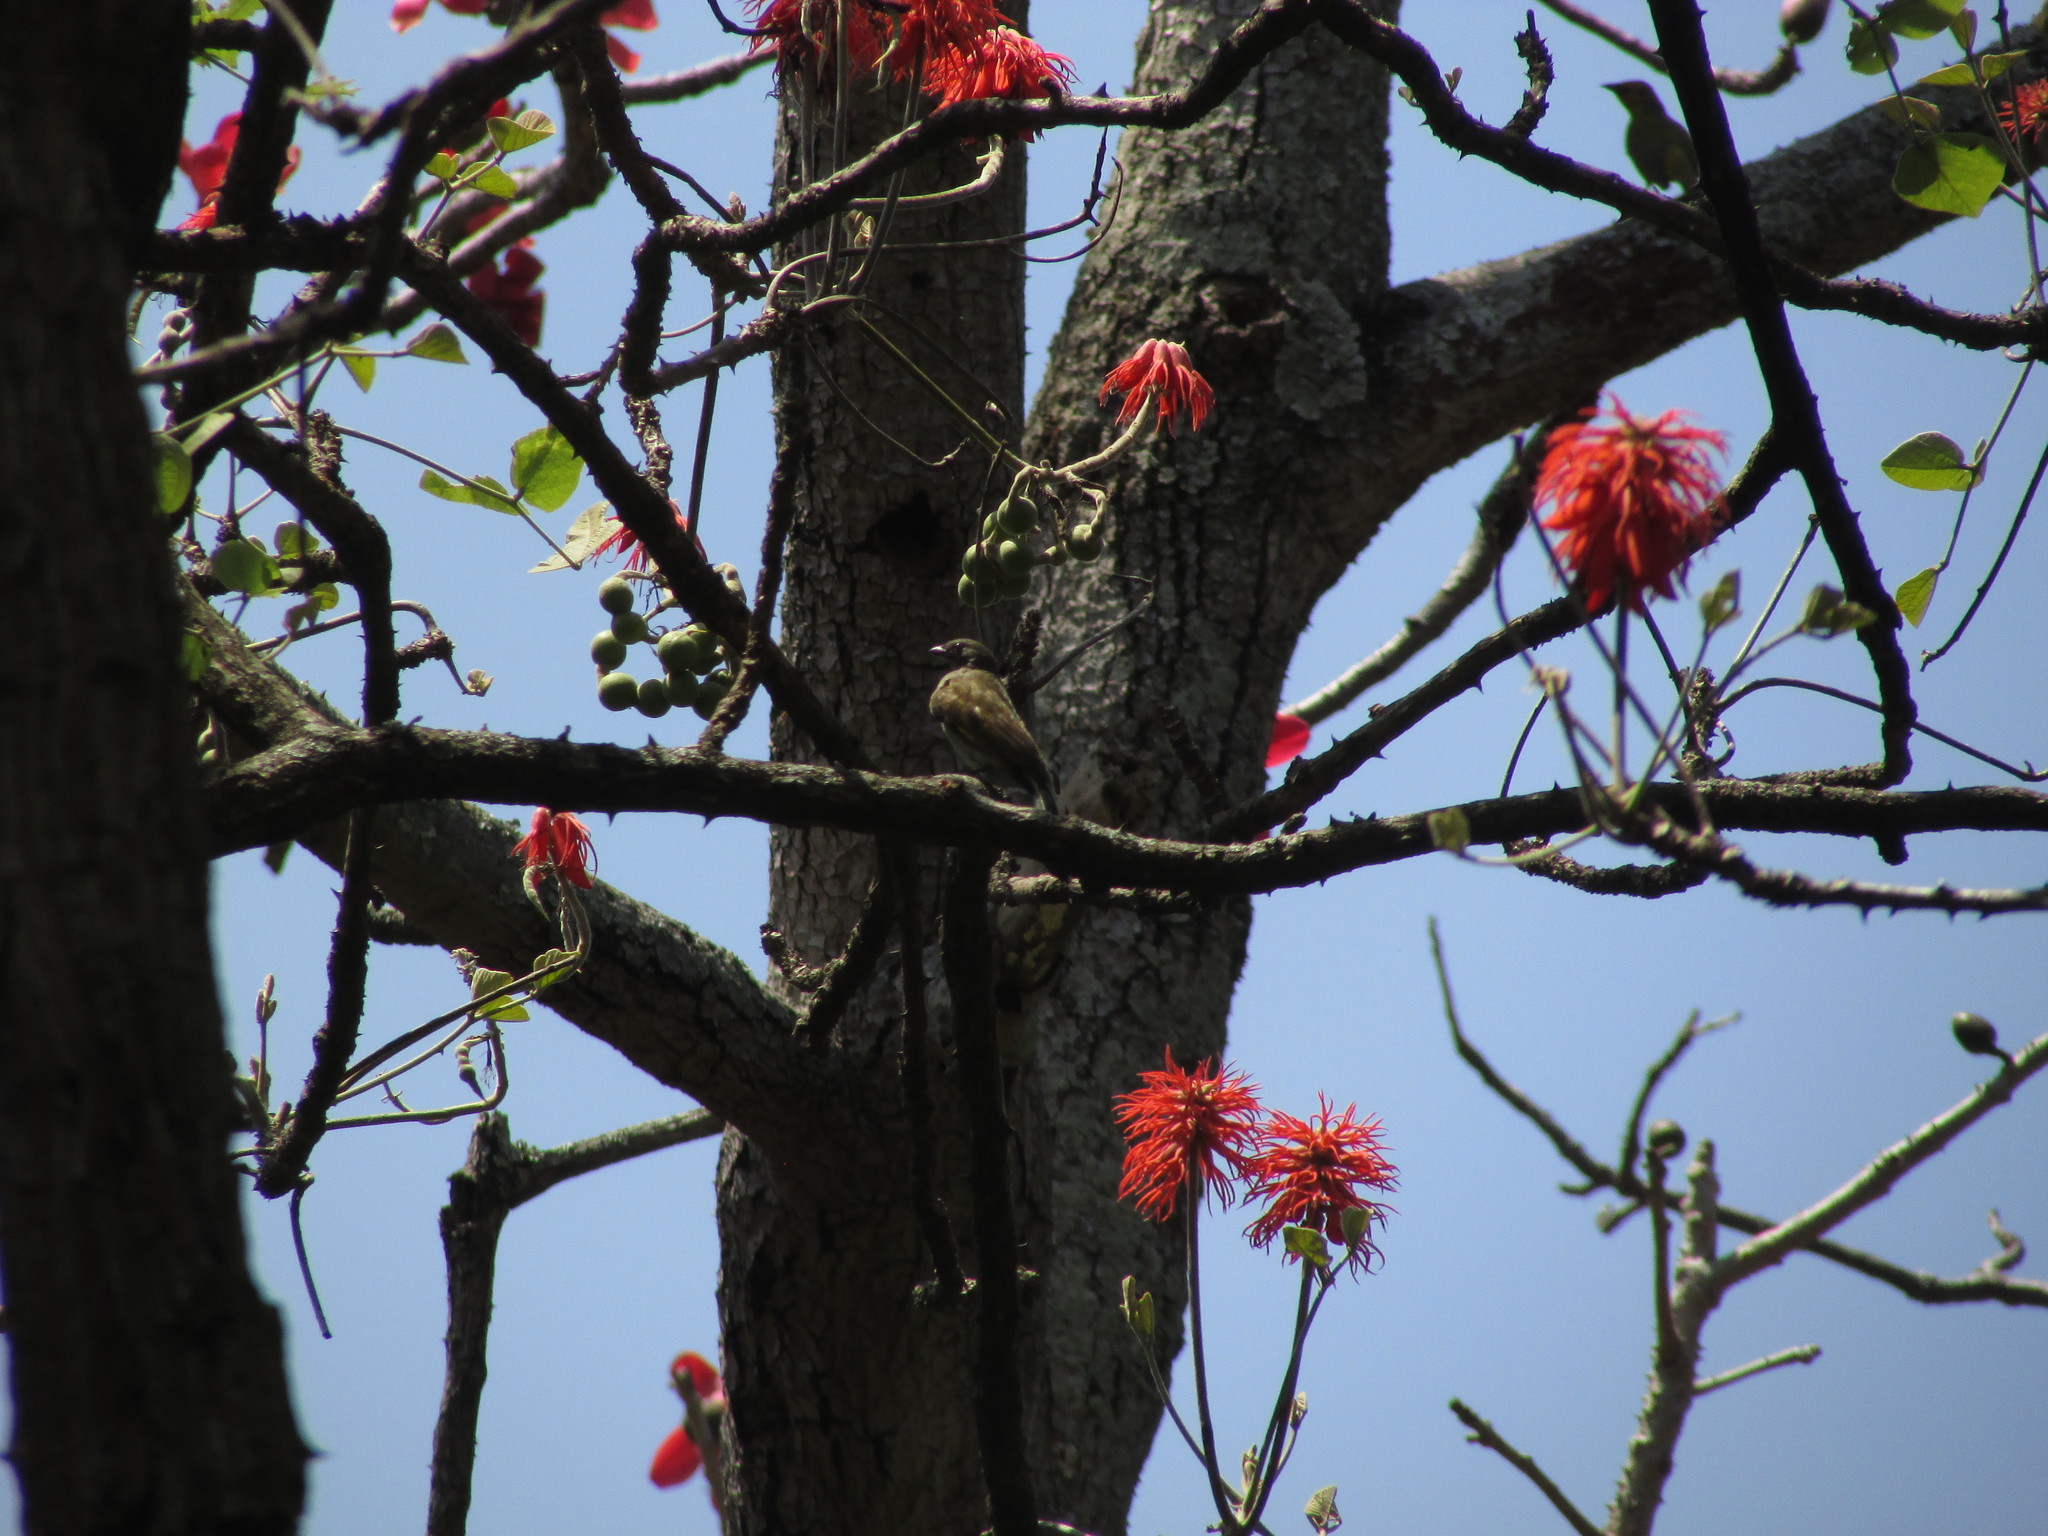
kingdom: Animalia
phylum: Chordata
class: Aves
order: Piciformes
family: Indicatoridae
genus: Indicator
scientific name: Indicator minor
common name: Lesser honeyguide
